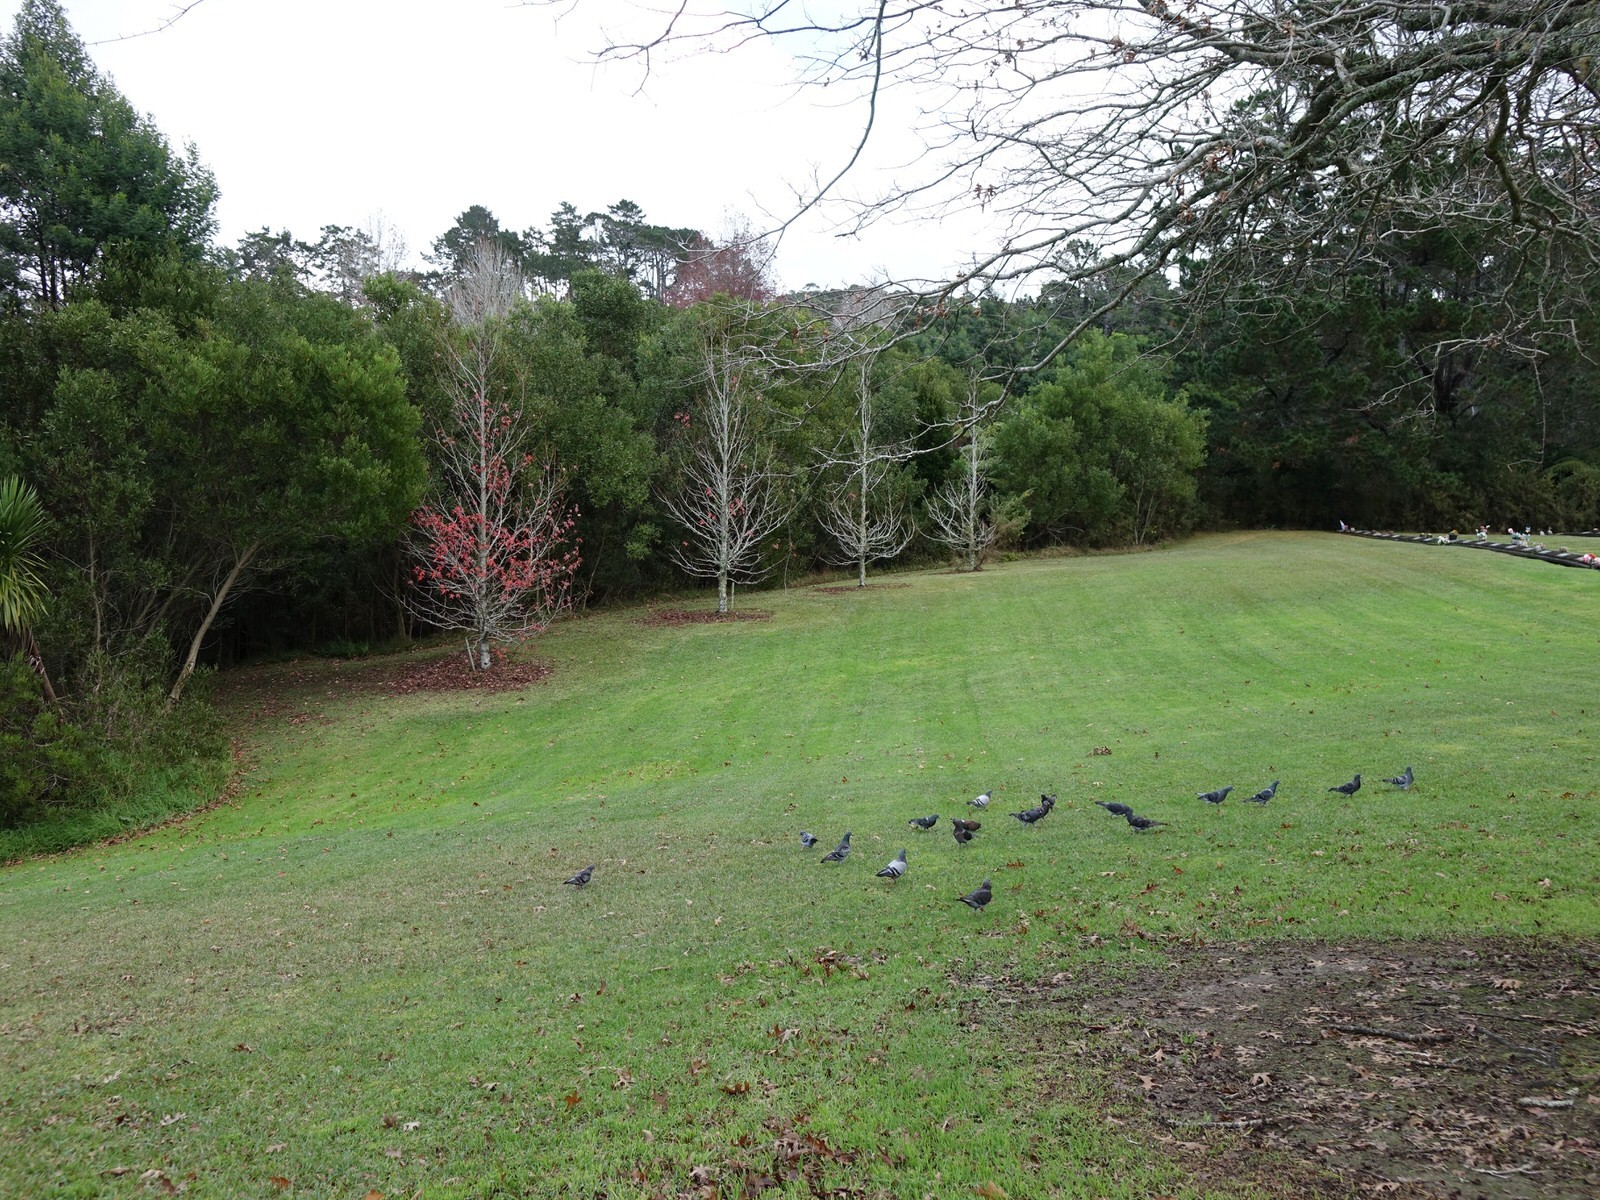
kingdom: Animalia
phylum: Chordata
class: Aves
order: Columbiformes
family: Columbidae
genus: Columba
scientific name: Columba livia
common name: Rock pigeon
